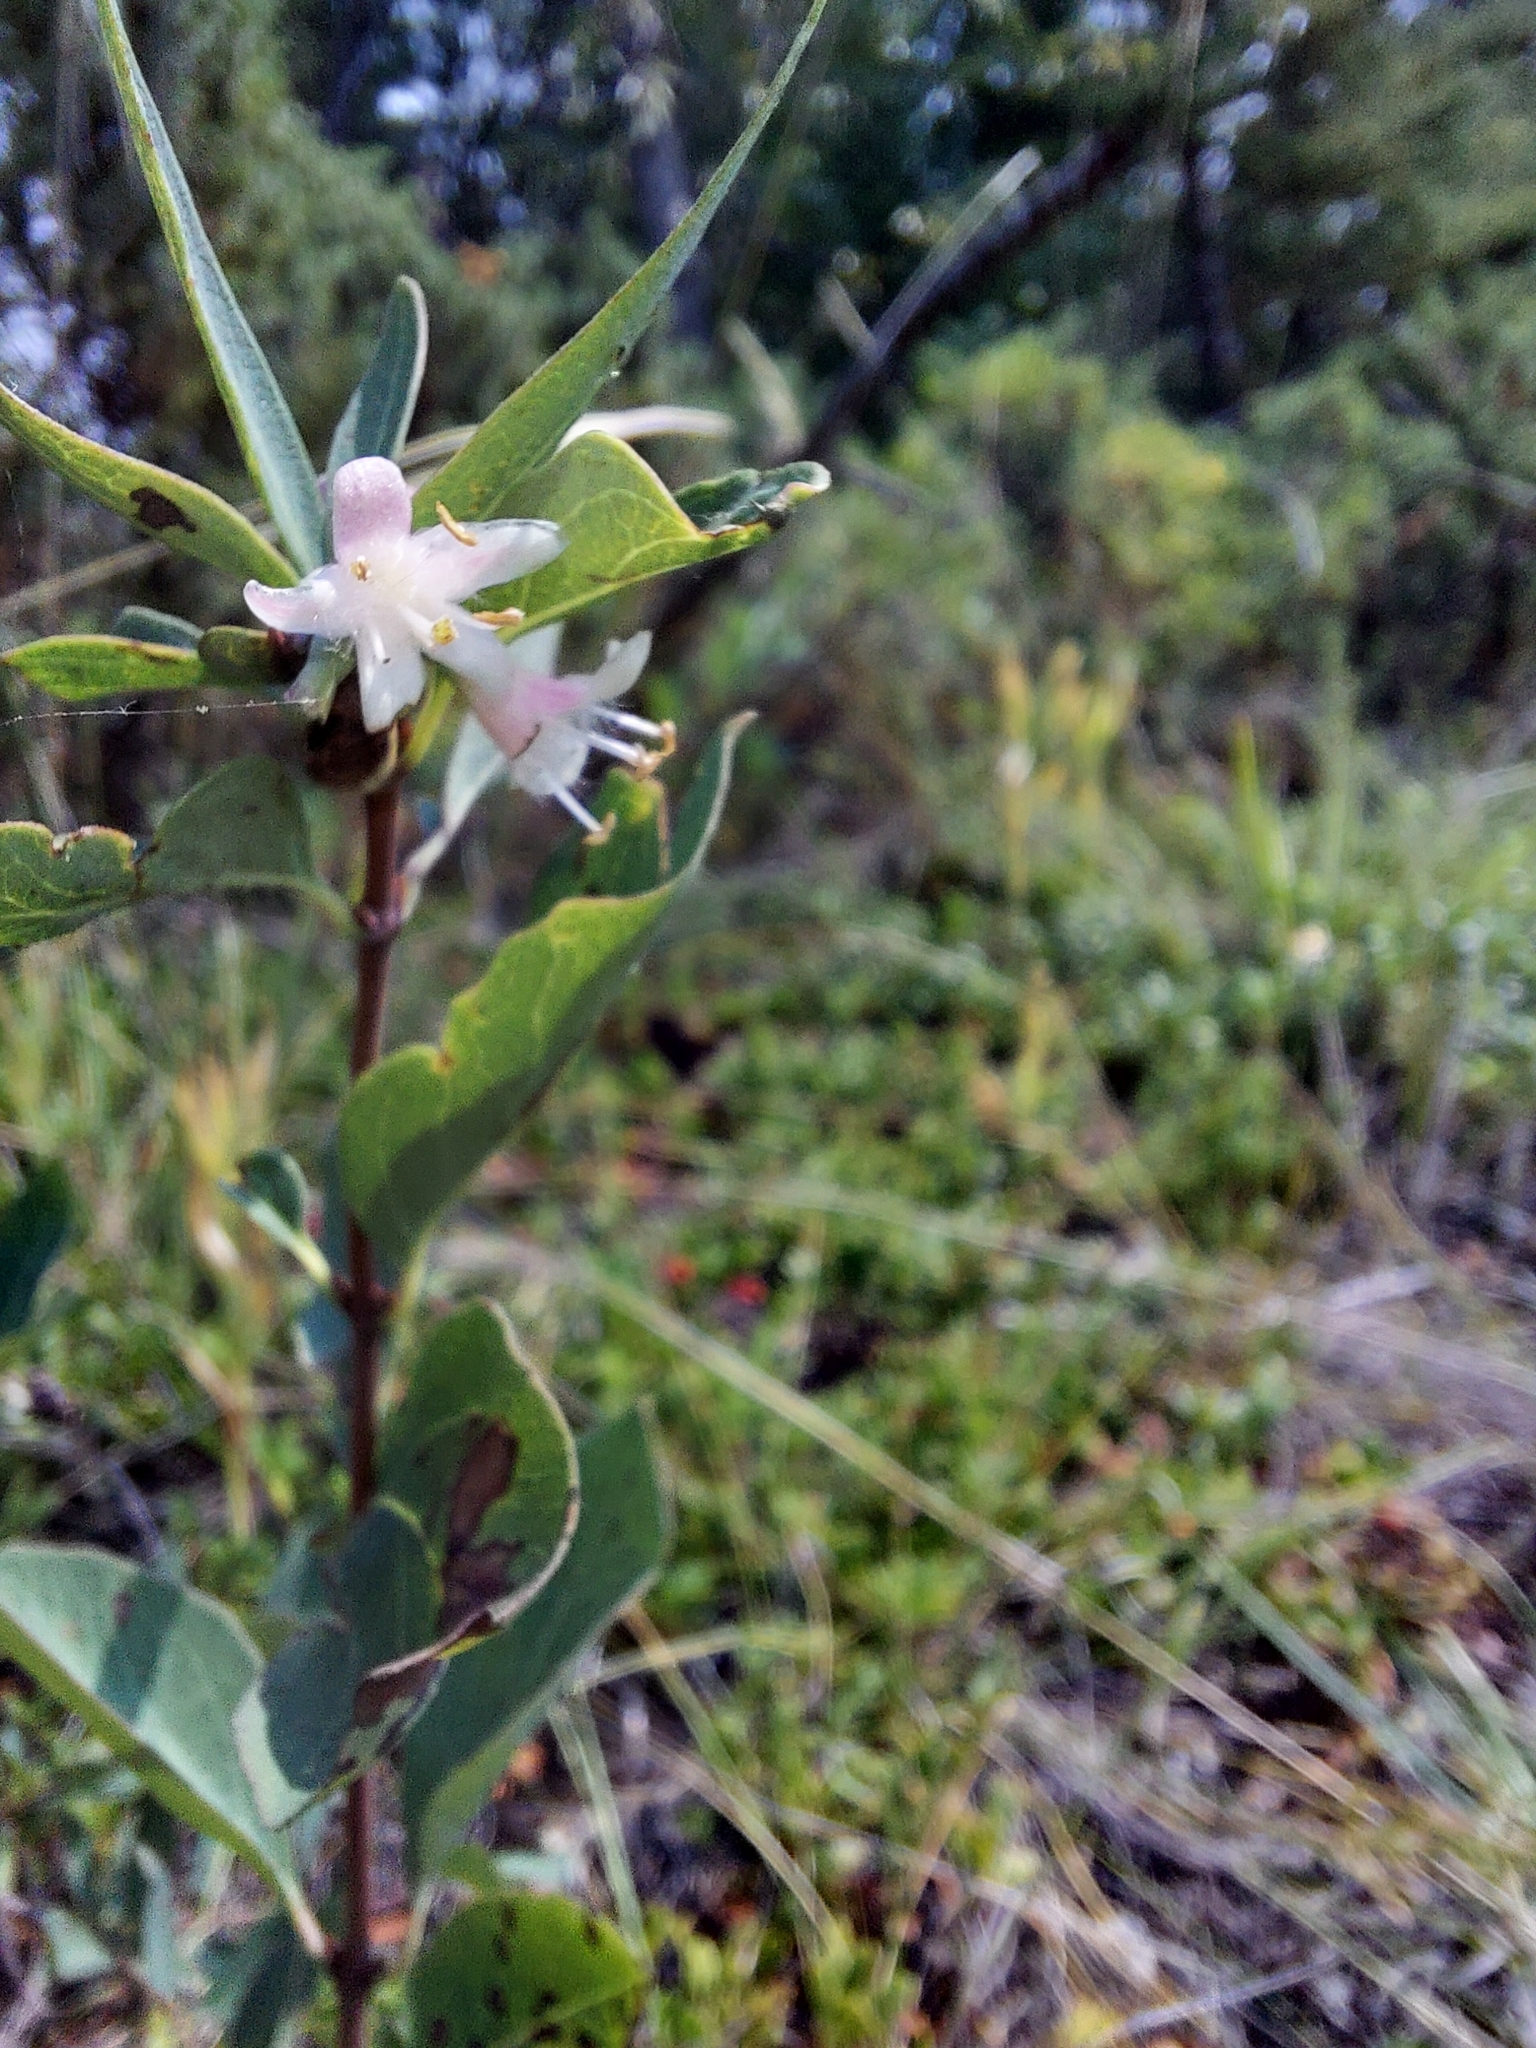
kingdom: Plantae
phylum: Tracheophyta
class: Magnoliopsida
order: Dipsacales
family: Caprifoliaceae
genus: Symphoricarpos
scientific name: Symphoricarpos occidentalis
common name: Wolfberry
